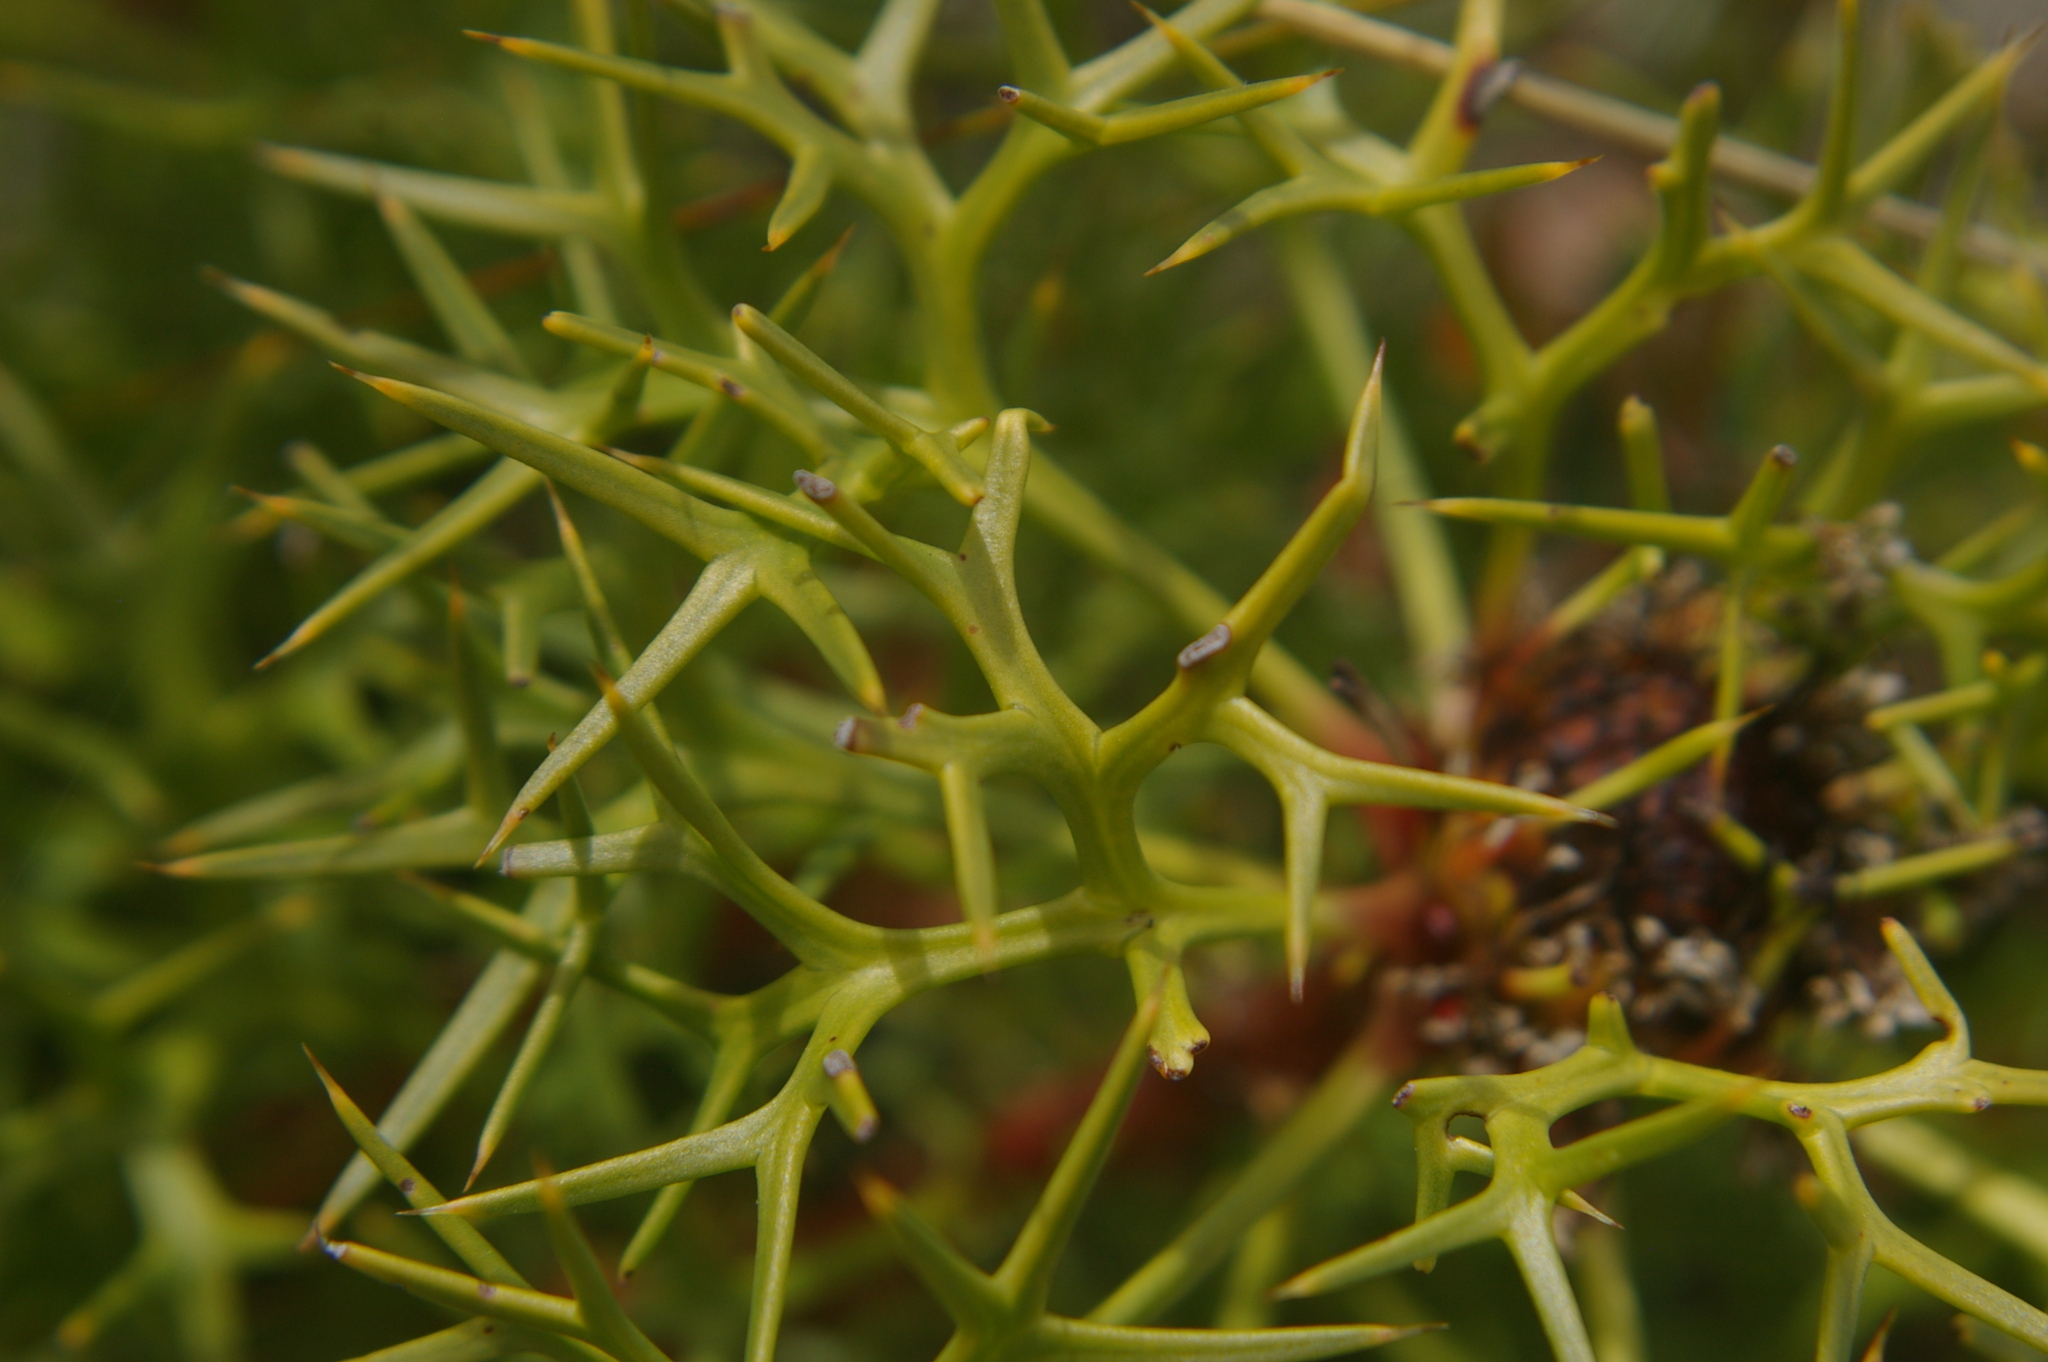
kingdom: Plantae
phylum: Tracheophyta
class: Magnoliopsida
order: Proteales
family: Proteaceae
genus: Isopogon
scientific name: Isopogon ceratophyllus
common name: Horny cone-bush
